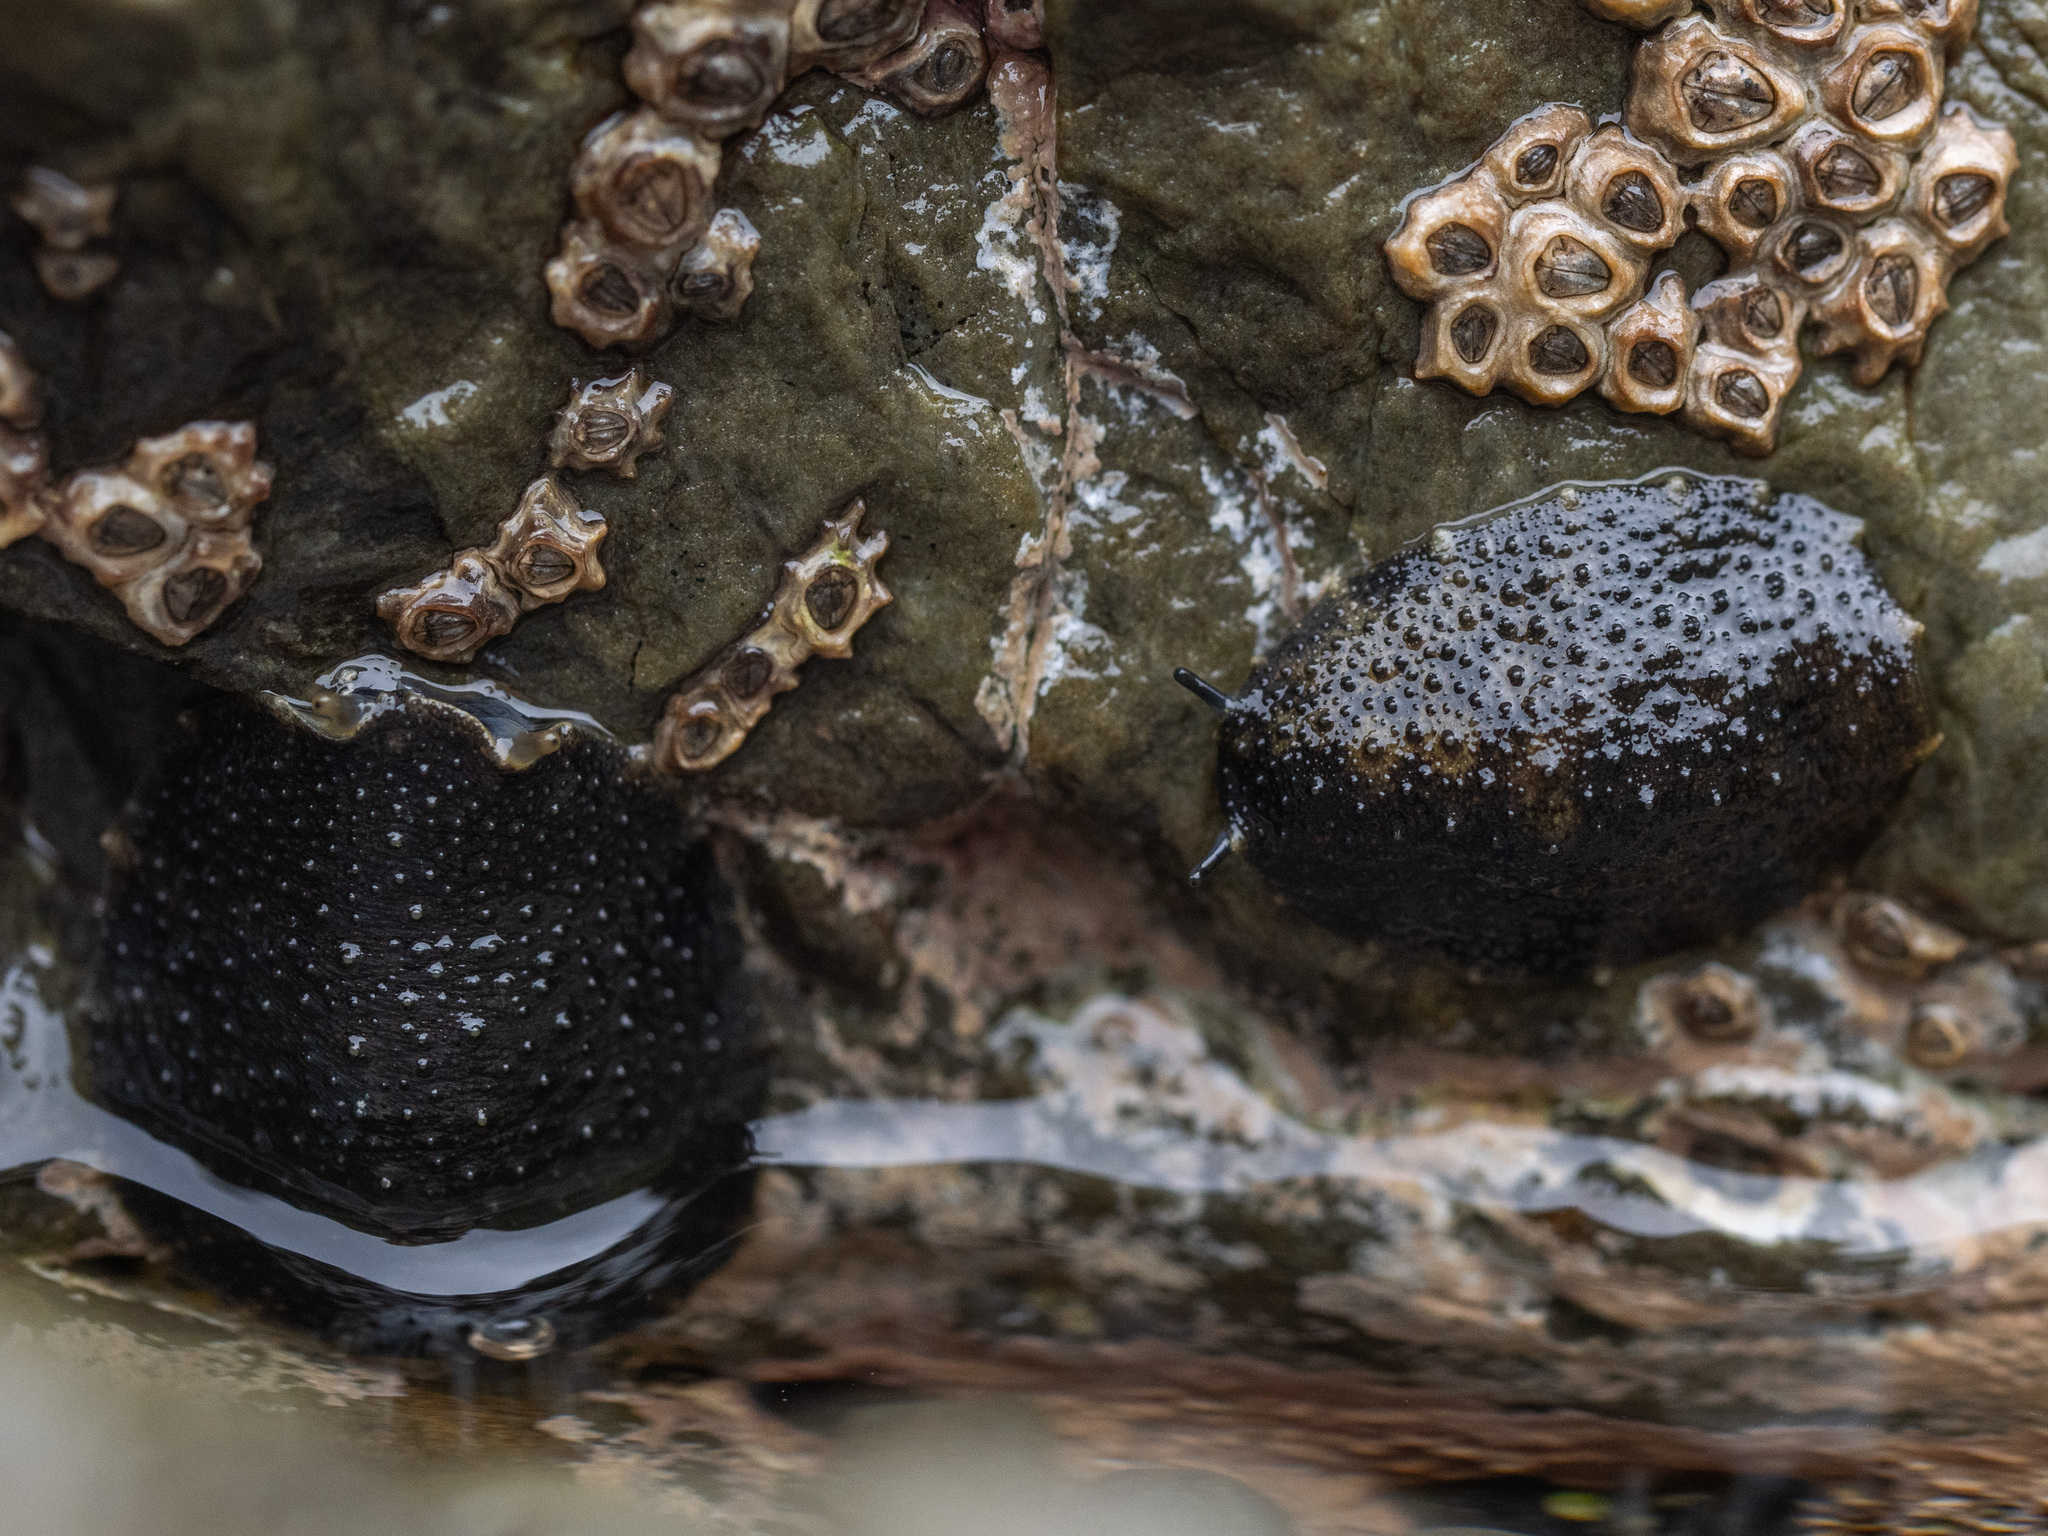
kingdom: Animalia
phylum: Mollusca
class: Gastropoda
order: Systellommatophora
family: Onchidiidae
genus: Onchidella
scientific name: Onchidella nigricans
